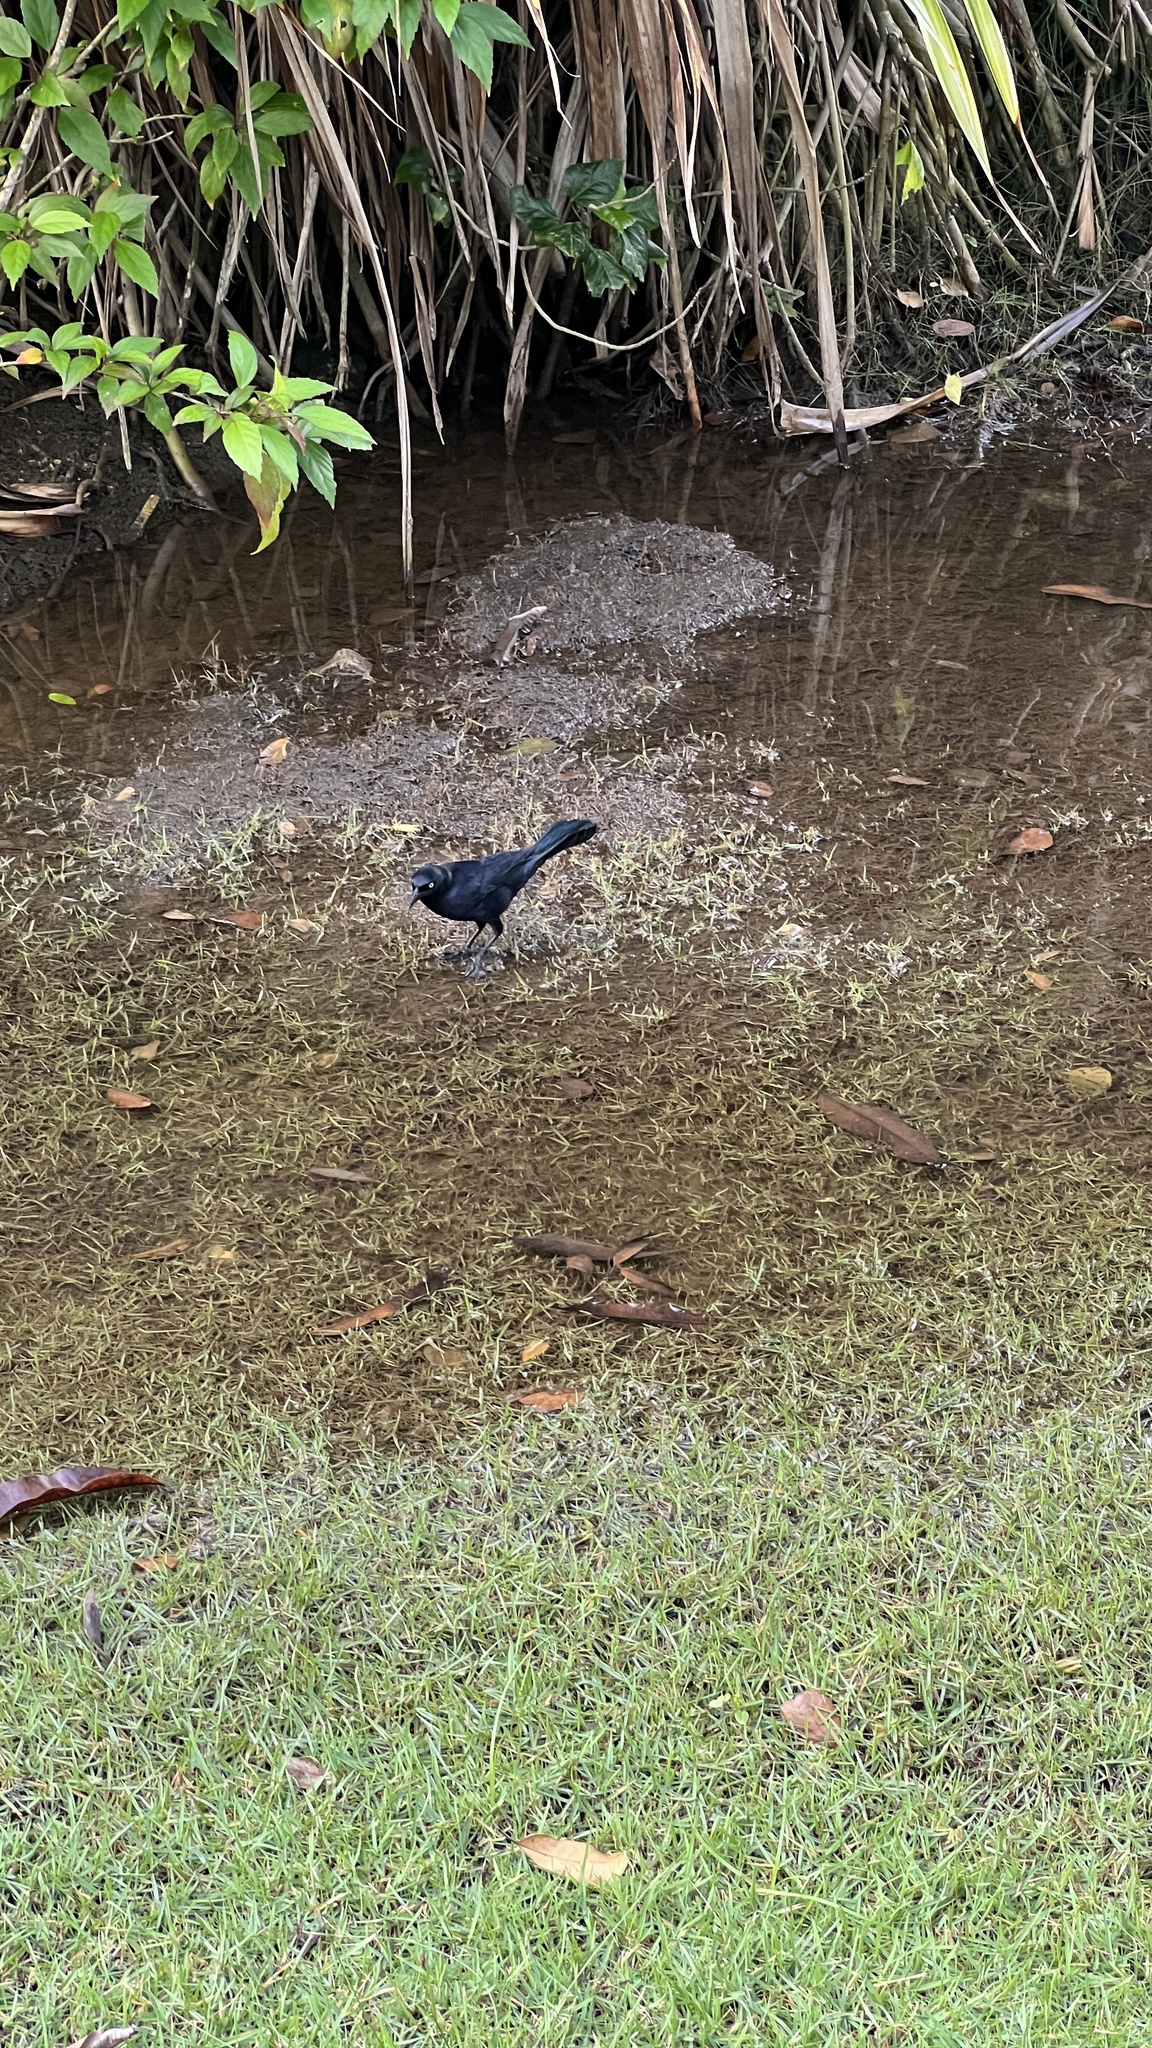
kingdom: Animalia
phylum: Chordata
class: Aves
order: Passeriformes
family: Icteridae
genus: Quiscalus
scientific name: Quiscalus niger
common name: Greater antillean grackle
